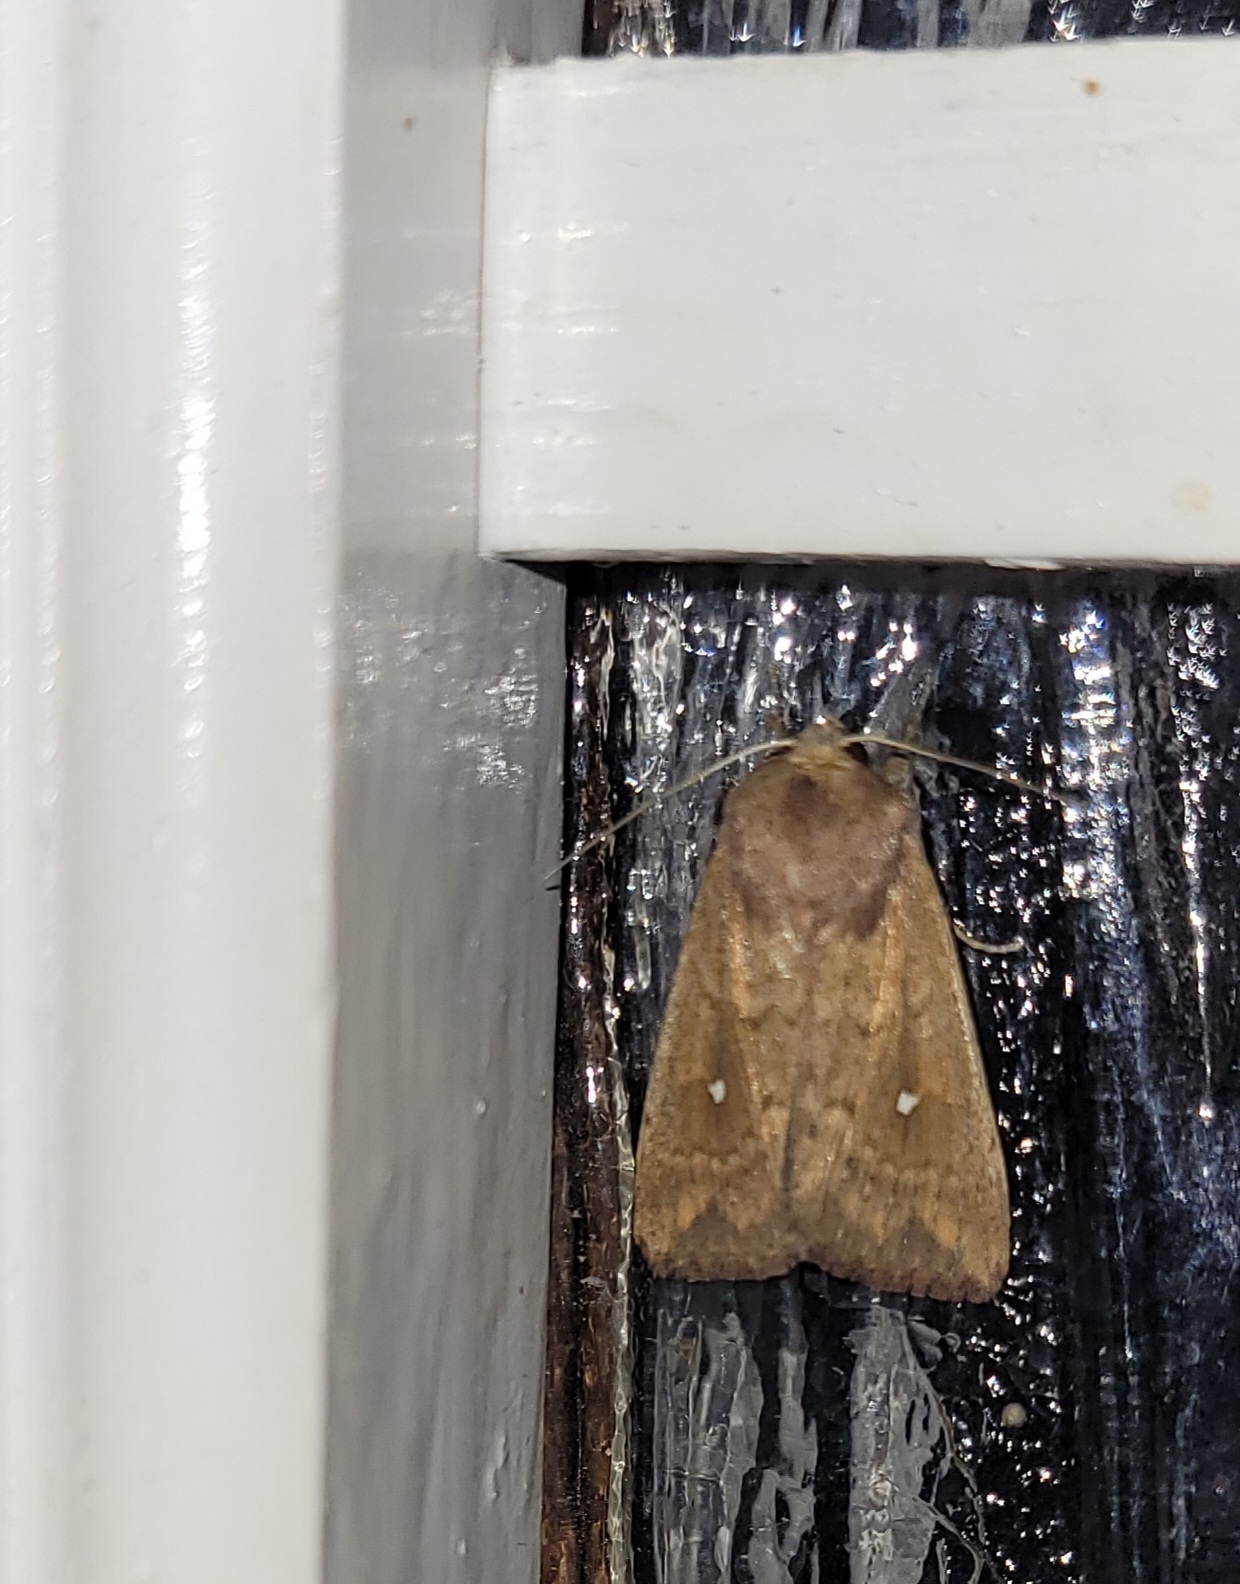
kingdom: Animalia
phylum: Arthropoda
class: Insecta
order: Lepidoptera
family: Noctuidae
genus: Mythimna
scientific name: Mythimna albipuncta
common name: White-point
